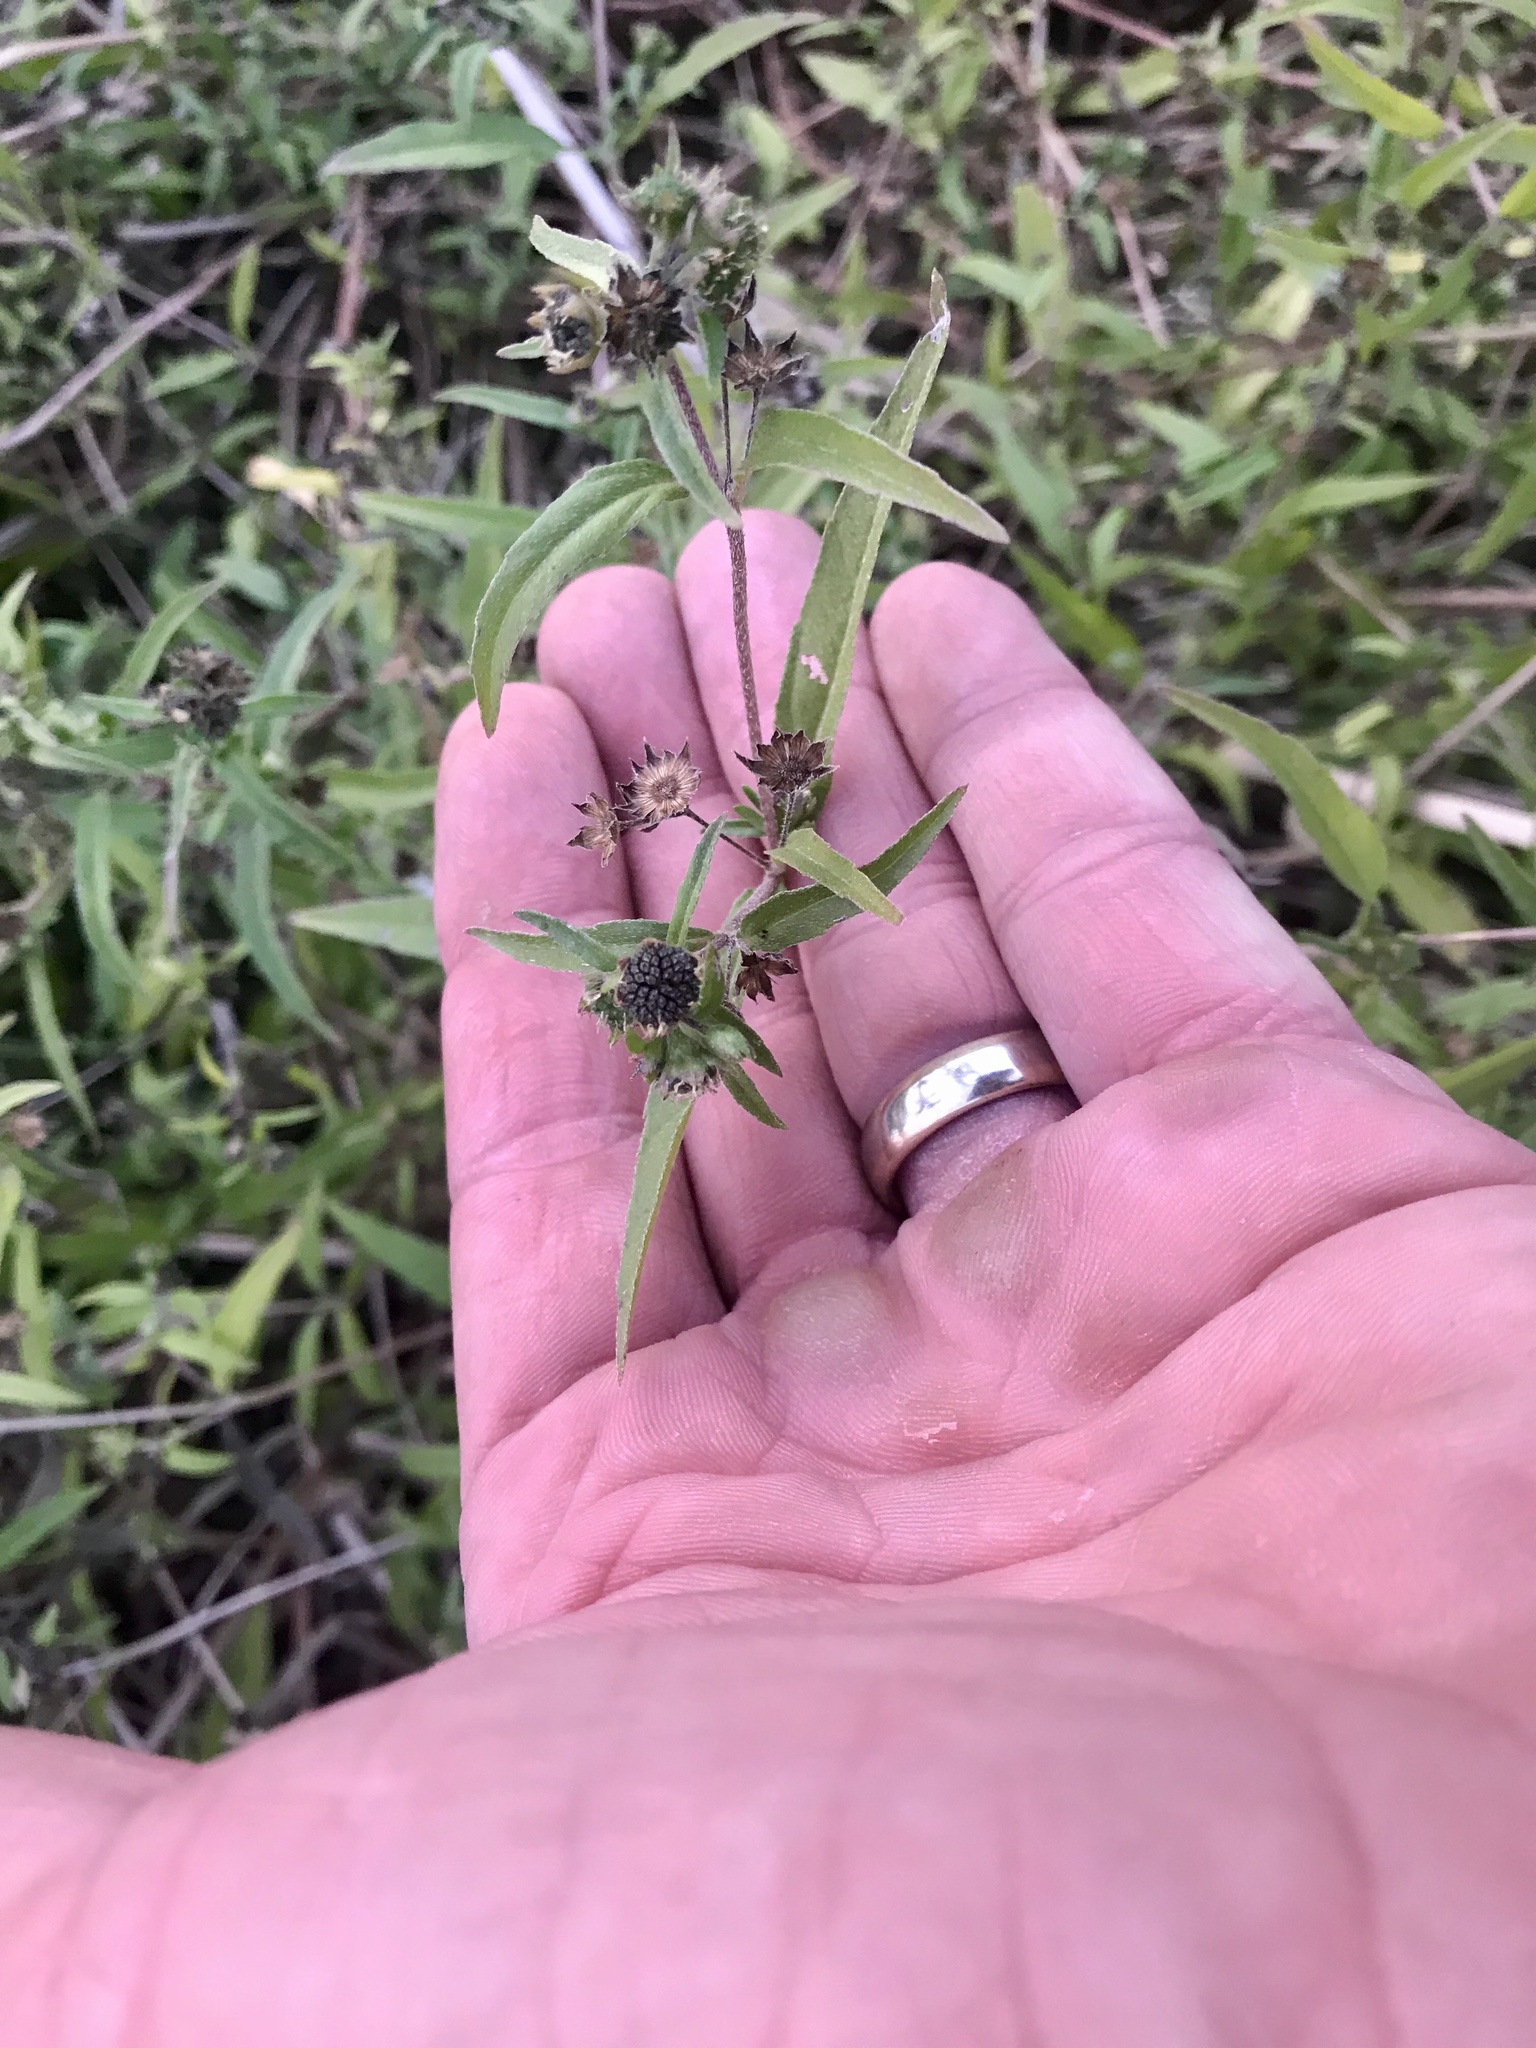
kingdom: Plantae
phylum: Tracheophyta
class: Magnoliopsida
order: Asterales
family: Asteraceae
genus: Eclipta
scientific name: Eclipta prostrata
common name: False daisy
